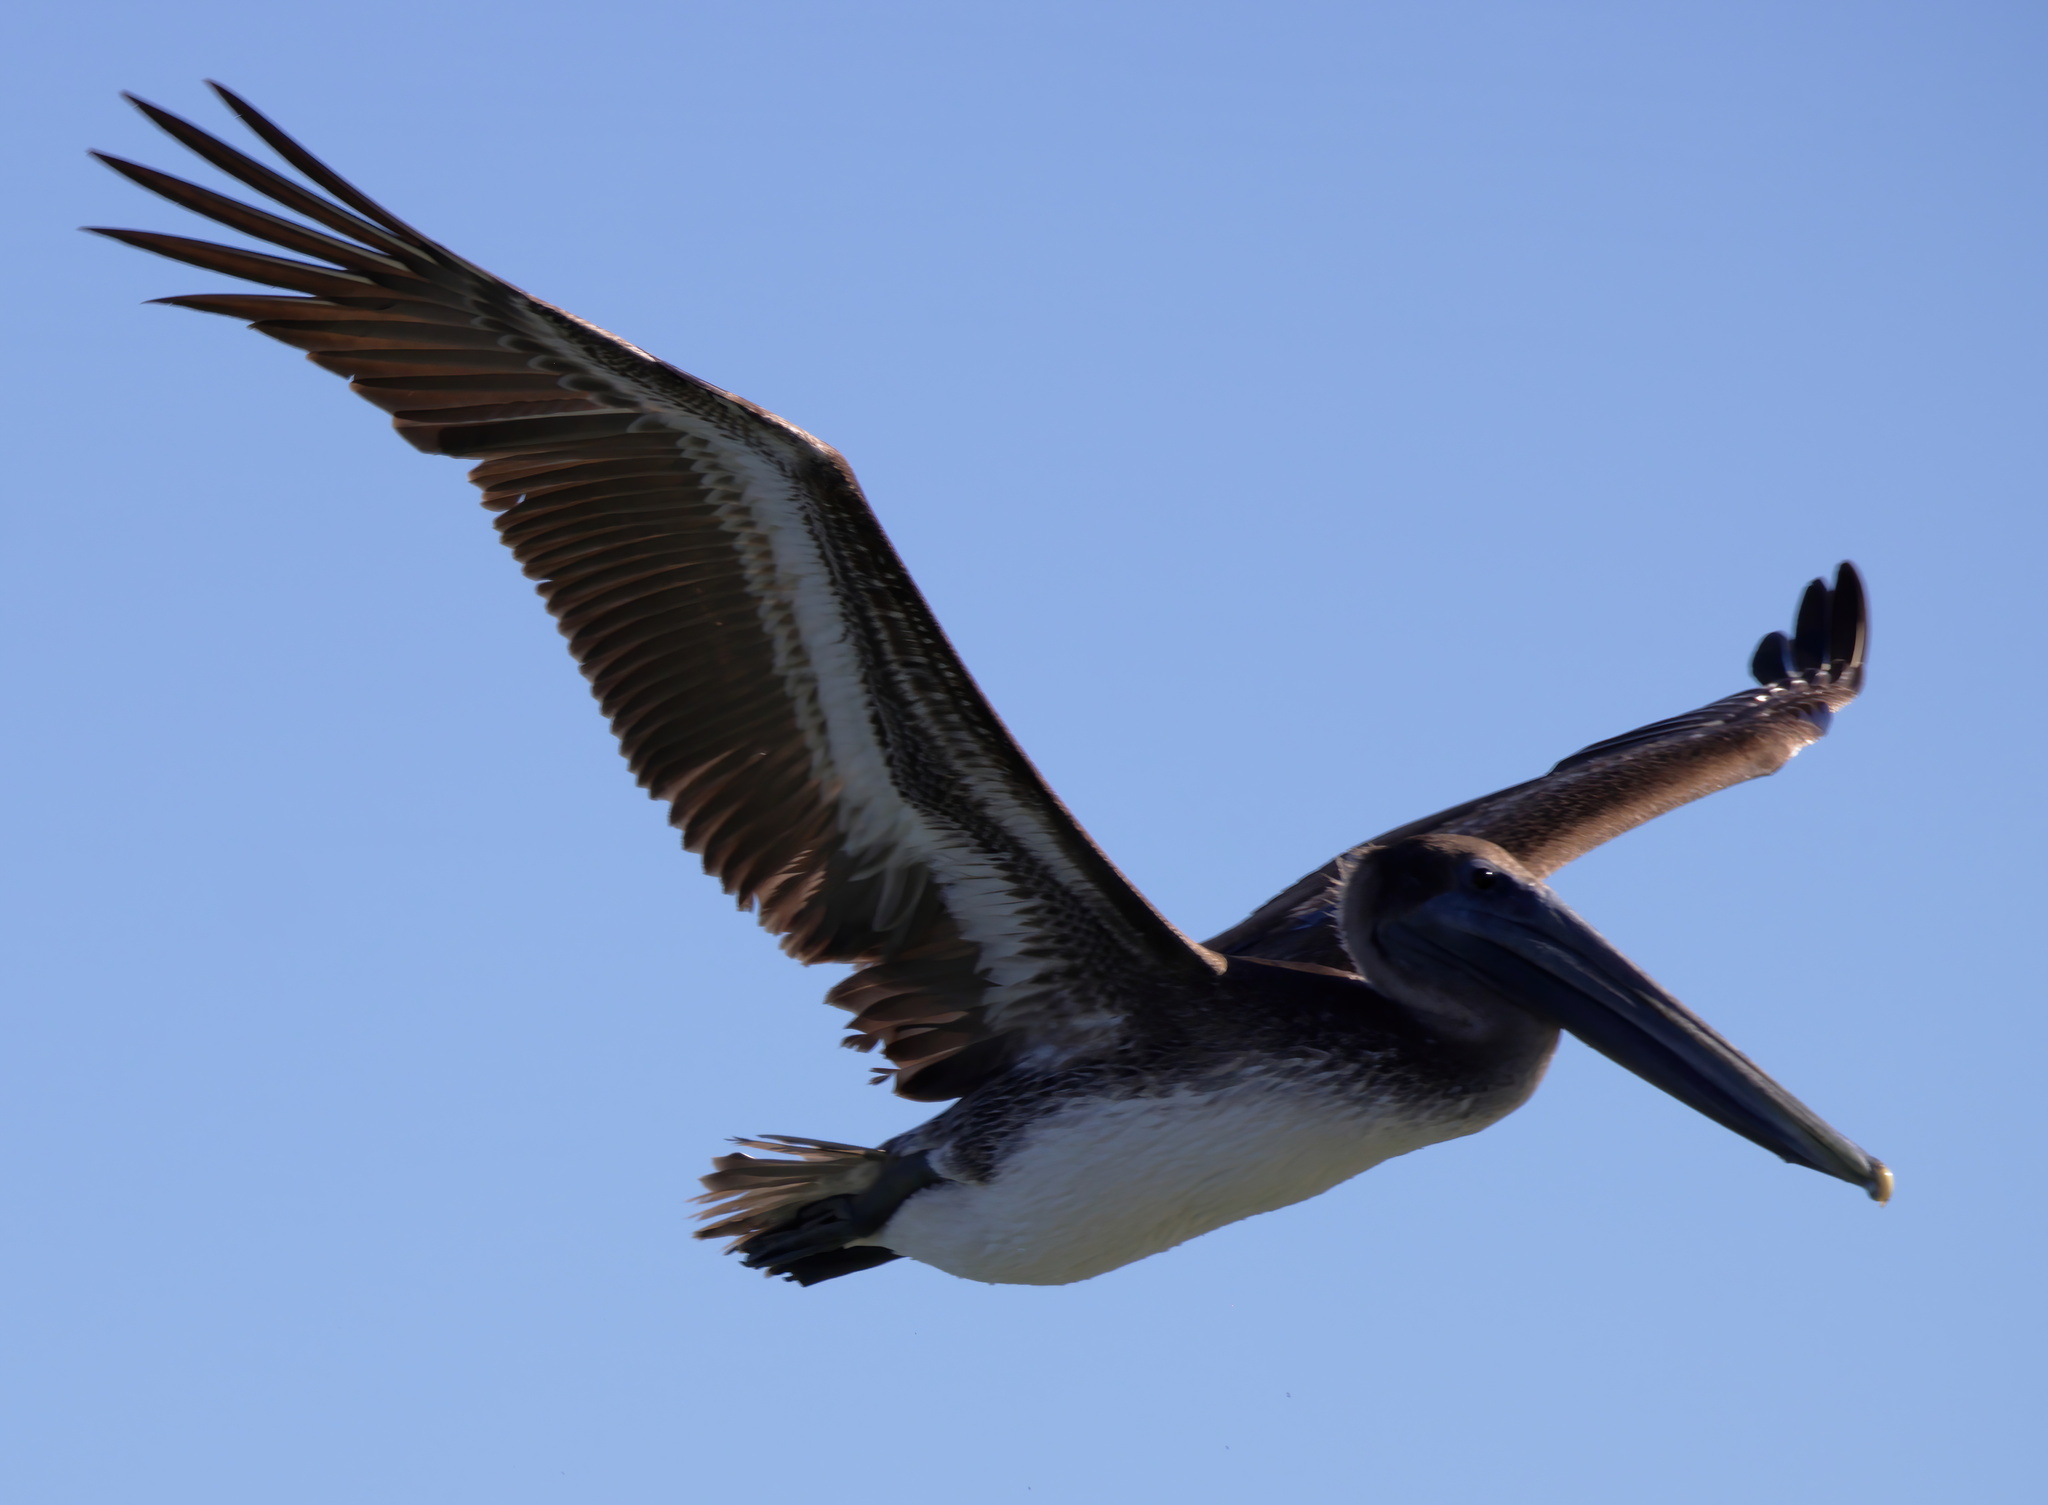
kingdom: Animalia
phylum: Chordata
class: Aves
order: Pelecaniformes
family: Pelecanidae
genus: Pelecanus
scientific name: Pelecanus occidentalis
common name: Brown pelican
